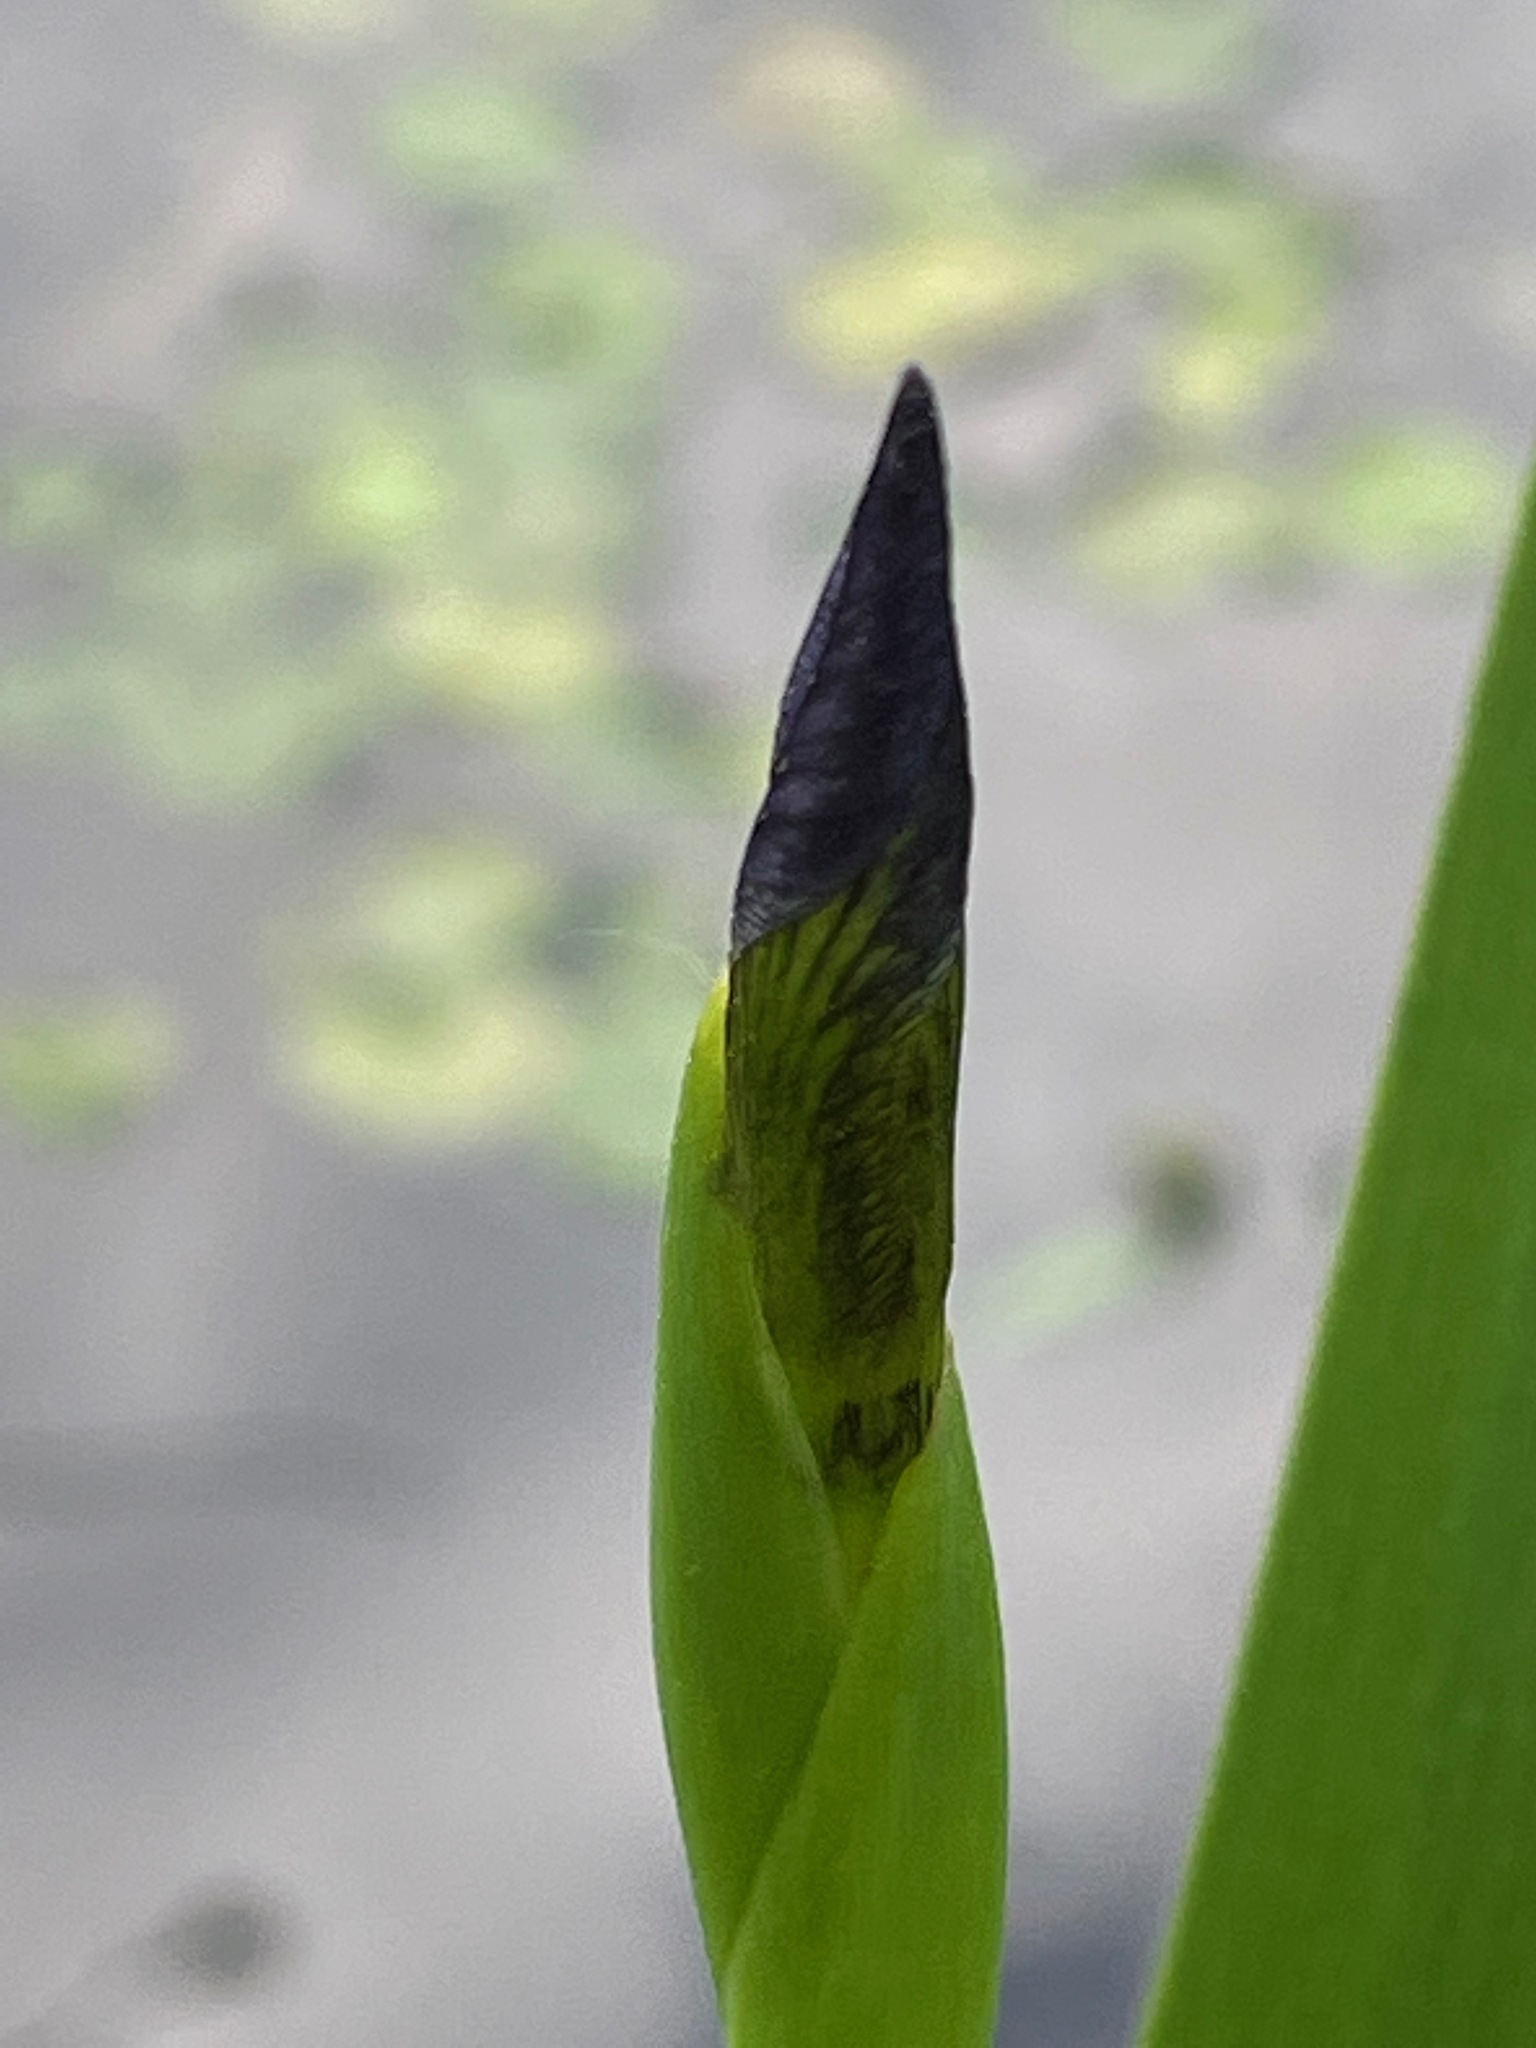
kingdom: Plantae
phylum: Tracheophyta
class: Liliopsida
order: Asparagales
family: Iridaceae
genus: Iris
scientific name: Iris versicolor
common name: Purple iris
